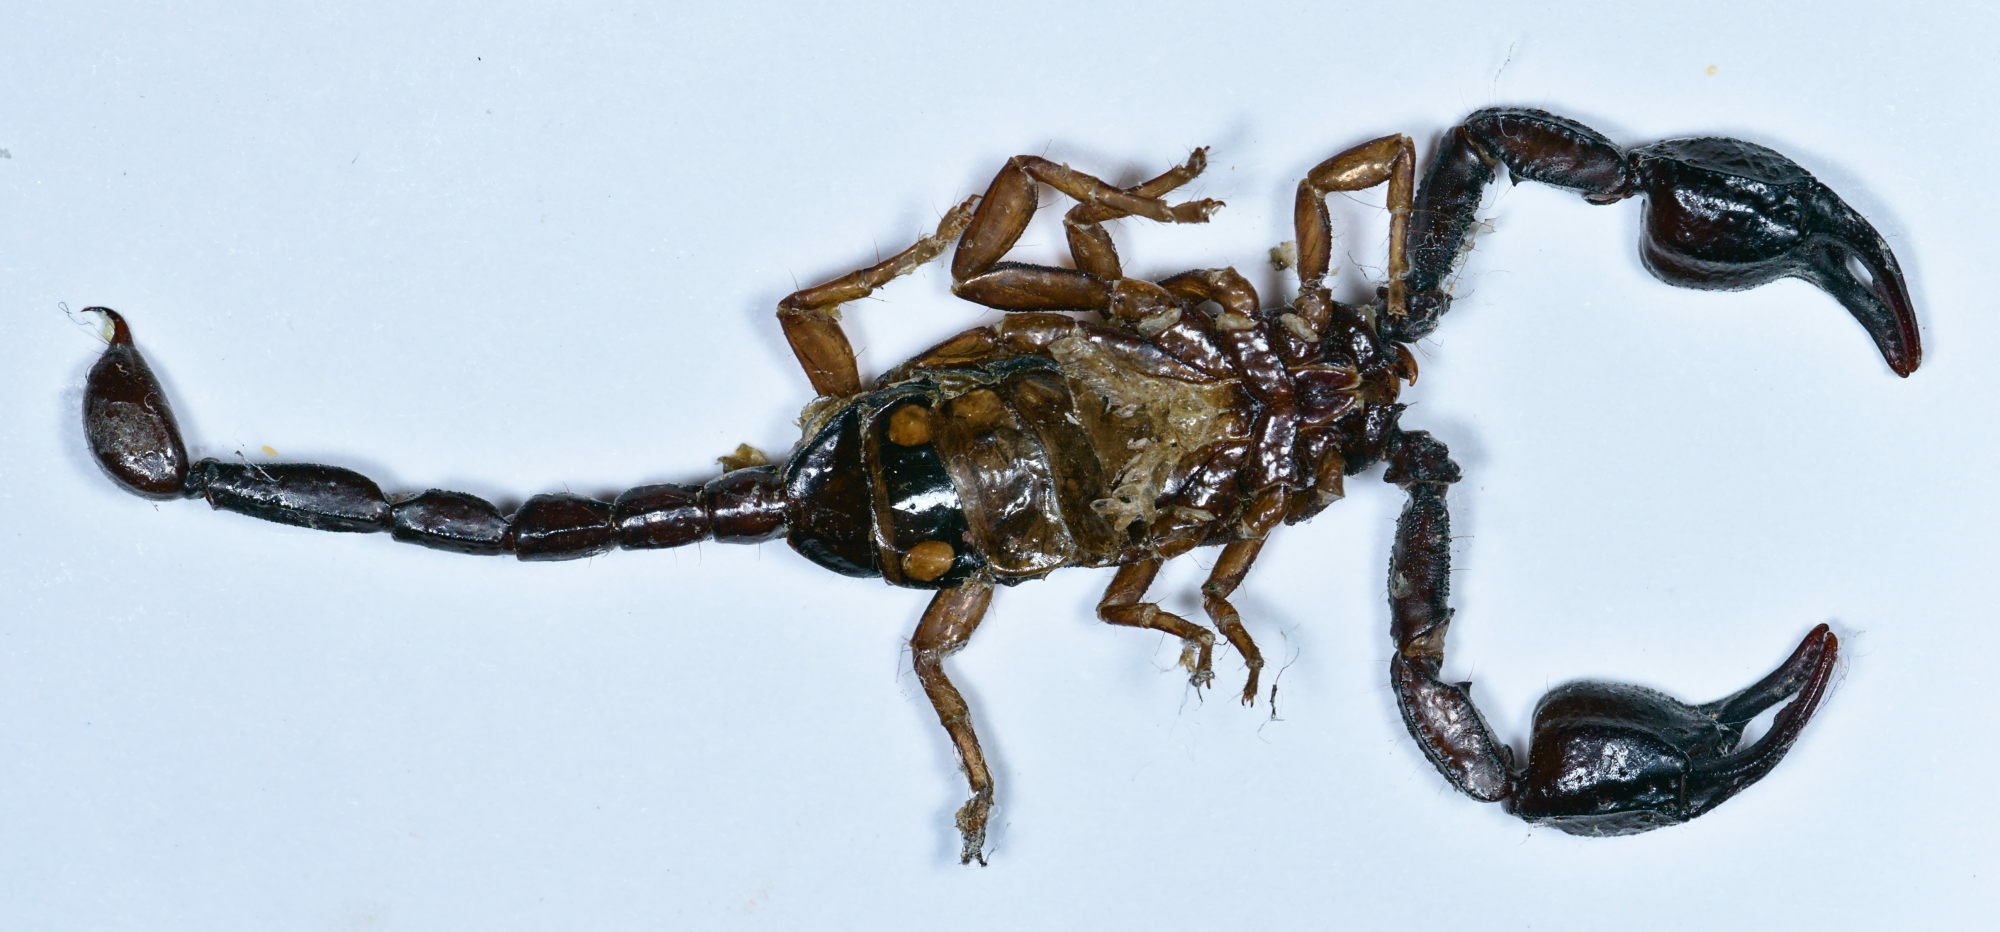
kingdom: Animalia
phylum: Arthropoda
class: Arachnida
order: Scorpiones
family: Euscorpiidae
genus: Euscorpius
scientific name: Euscorpius concinnus
